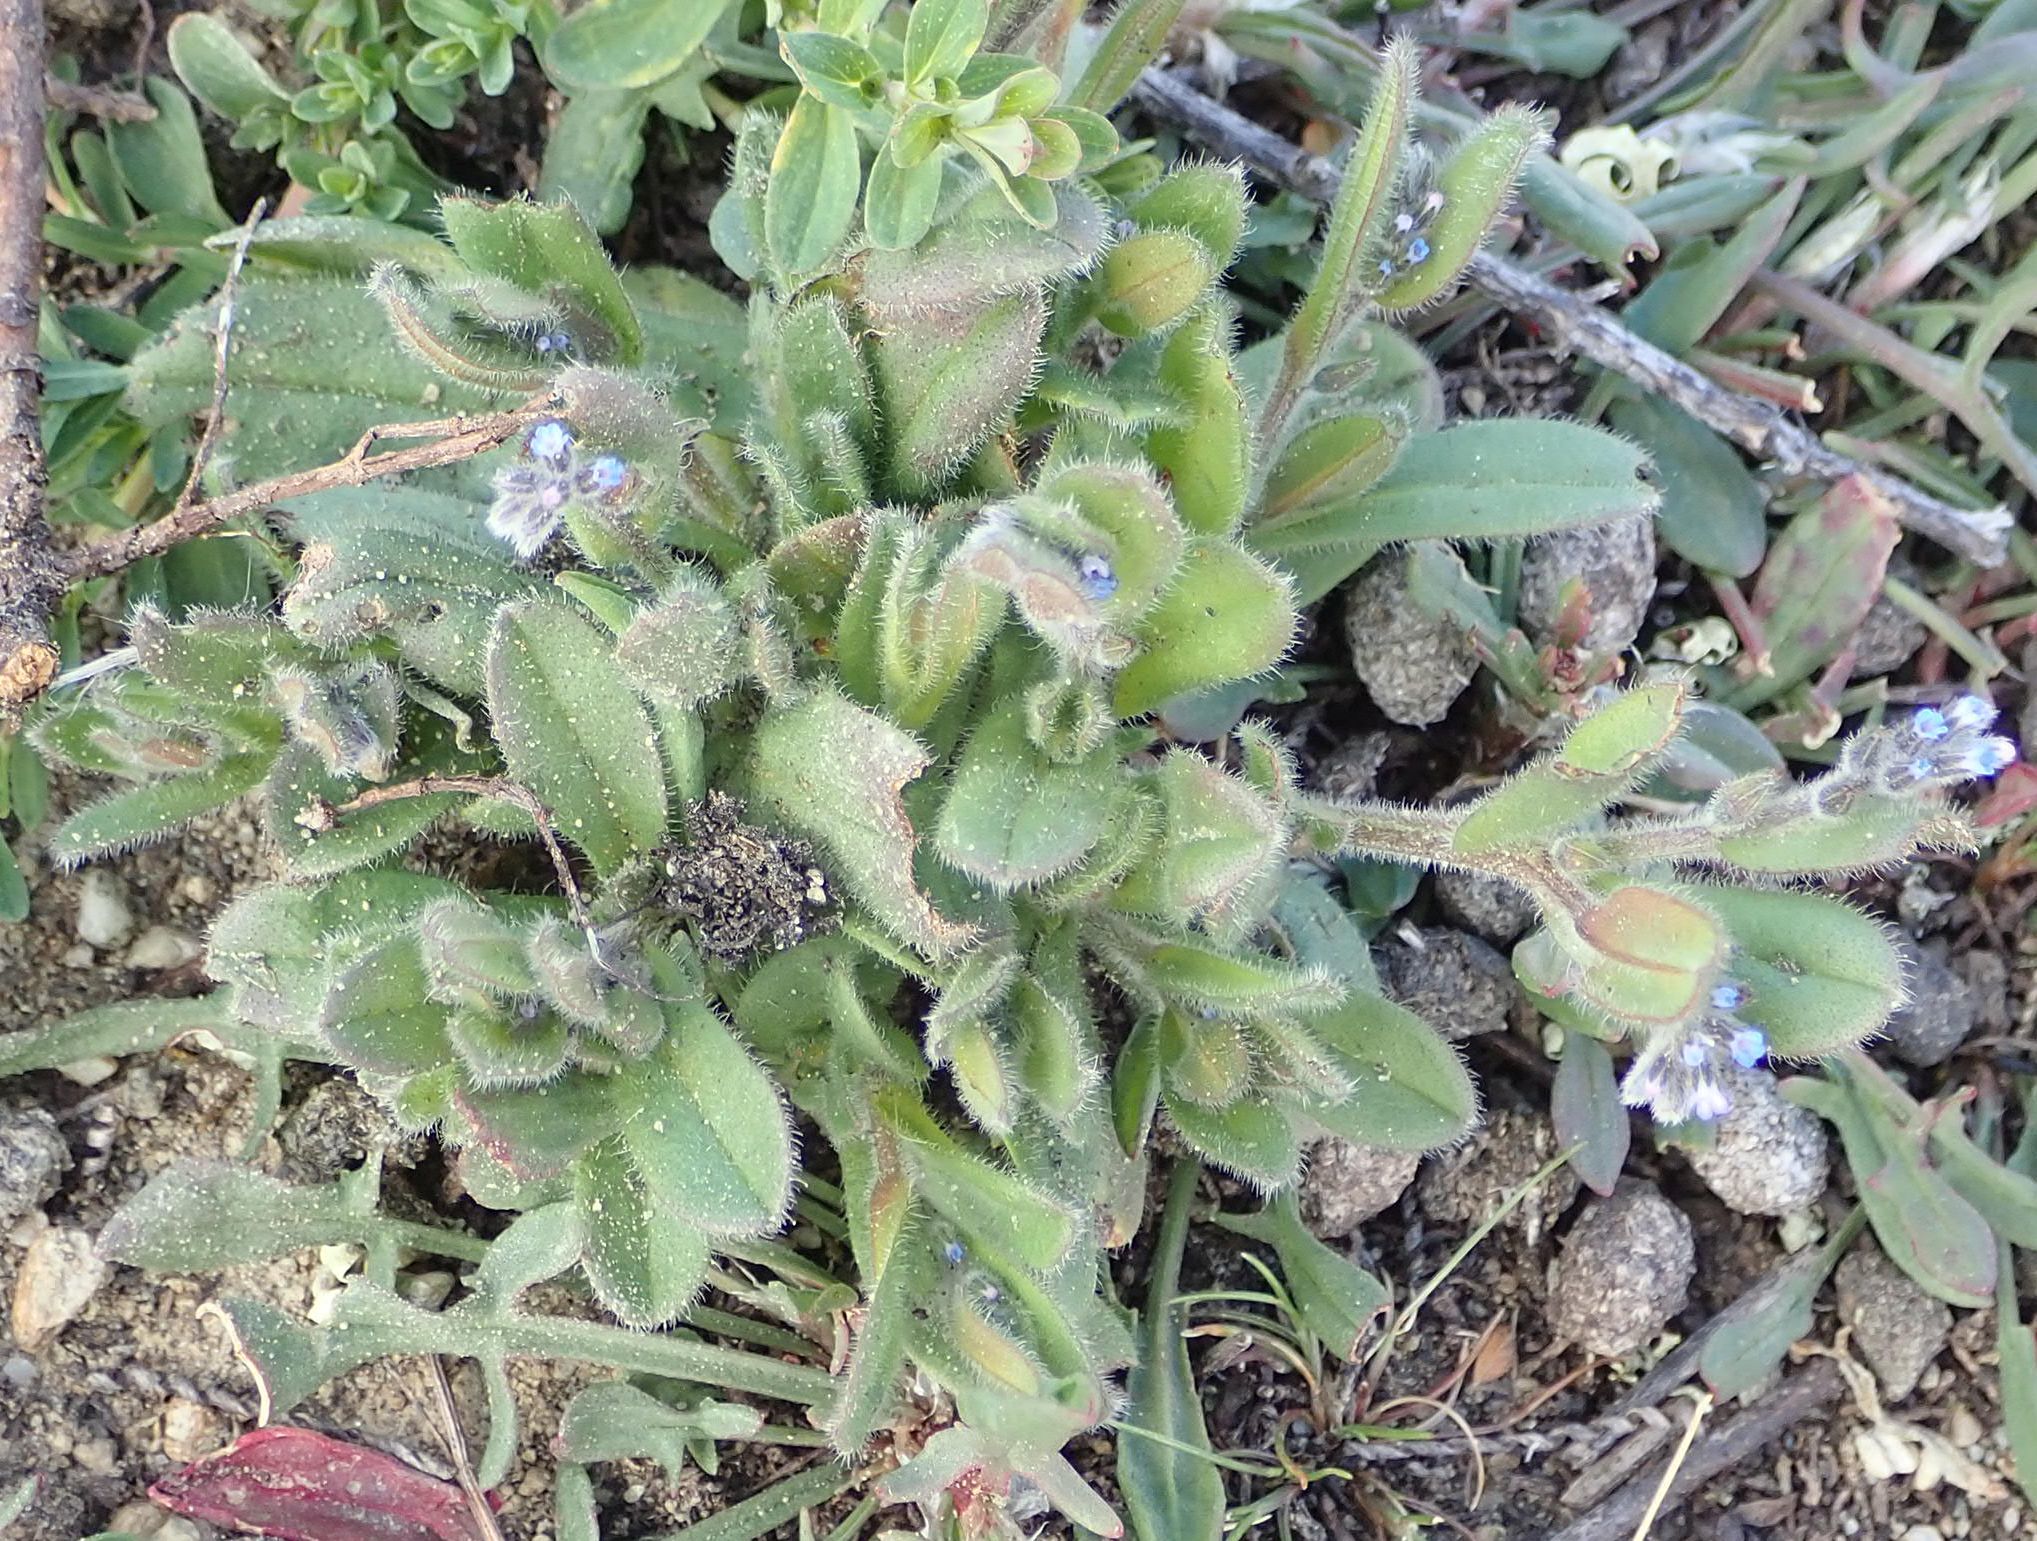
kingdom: Plantae
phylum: Tracheophyta
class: Magnoliopsida
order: Boraginales
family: Boraginaceae
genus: Myosotis
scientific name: Myosotis stricta
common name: Strict forget-me-not
